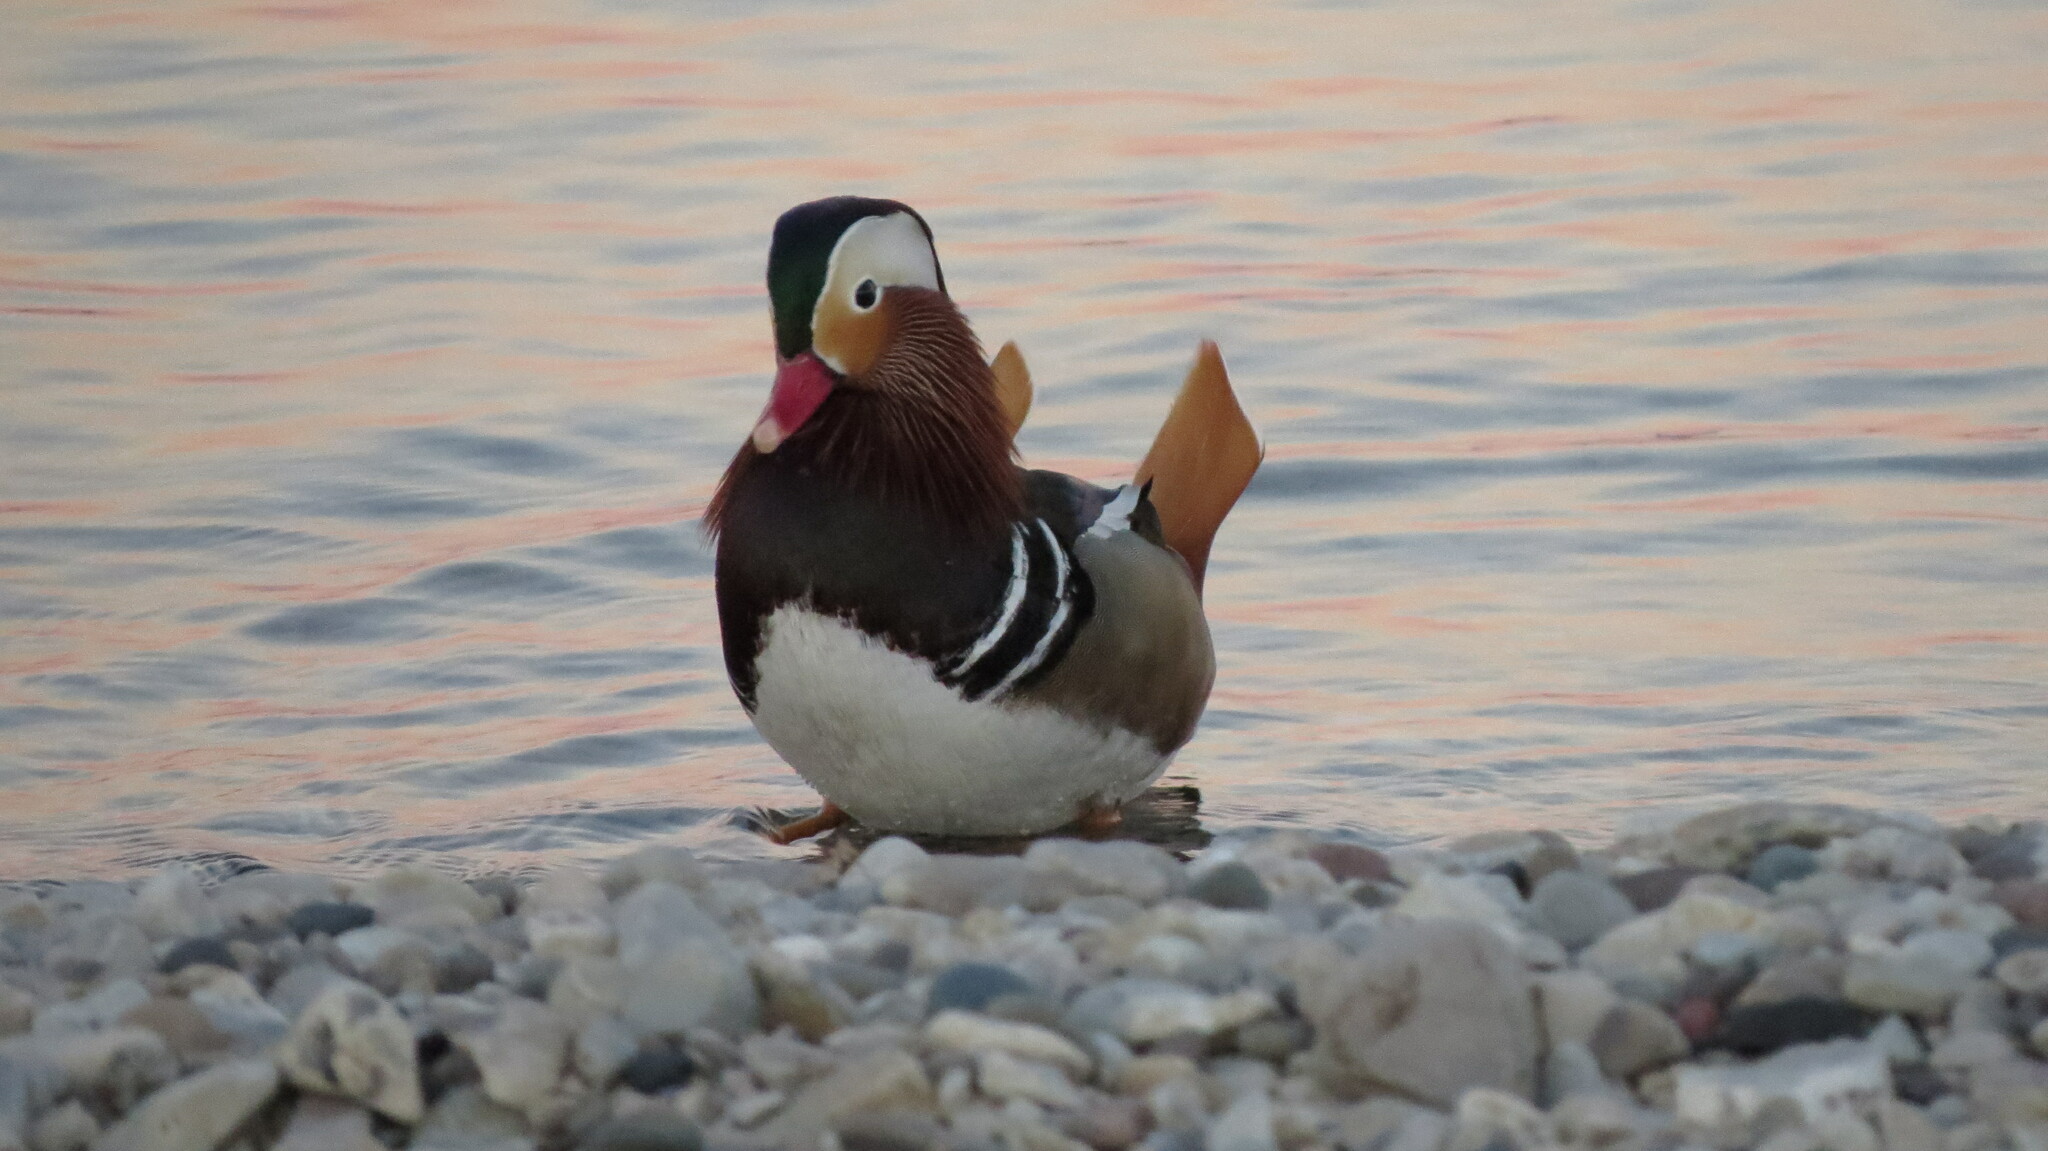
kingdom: Animalia
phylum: Chordata
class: Aves
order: Anseriformes
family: Anatidae
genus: Aix
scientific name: Aix galericulata
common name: Mandarin duck
